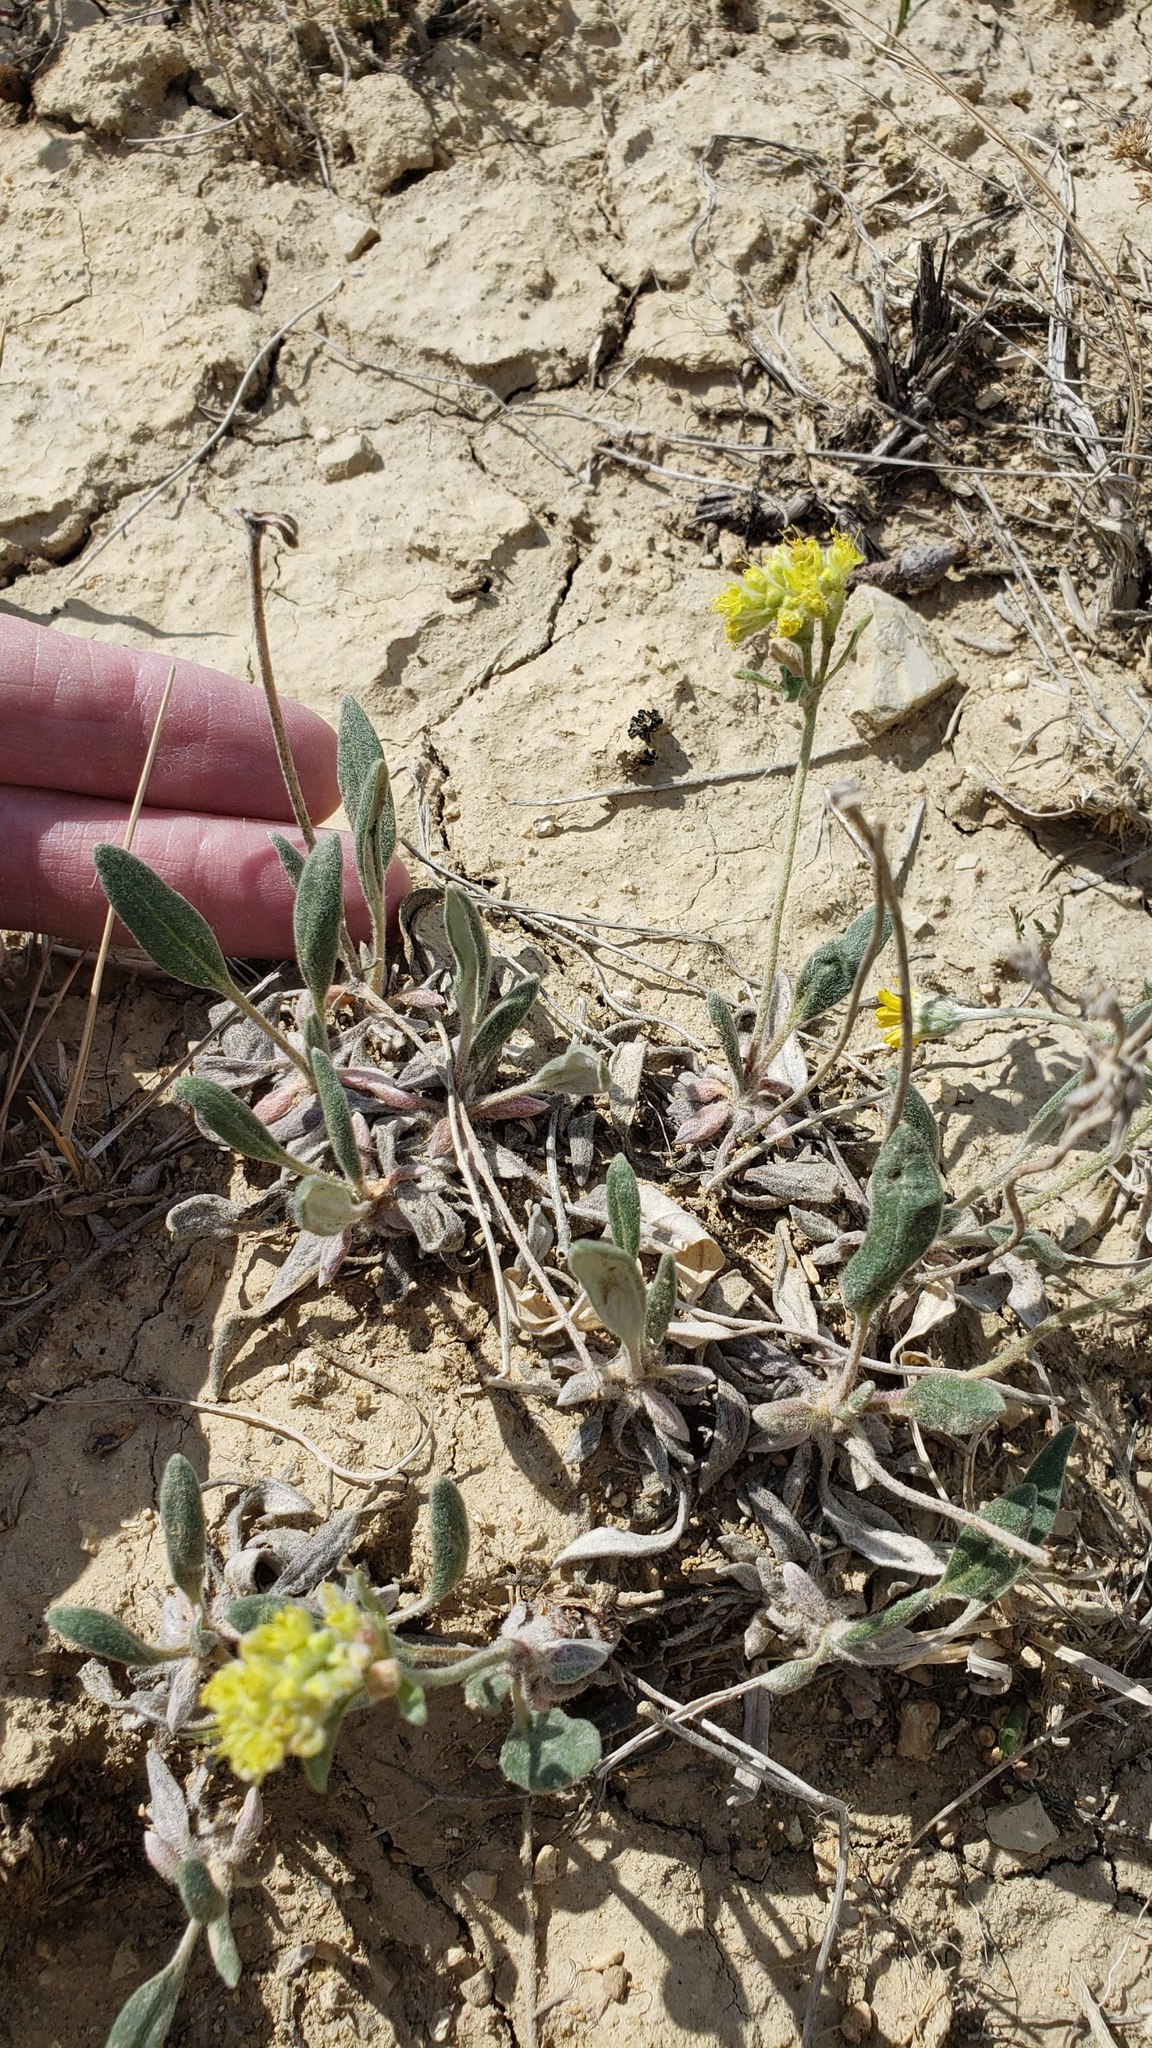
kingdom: Plantae
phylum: Tracheophyta
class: Magnoliopsida
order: Caryophyllales
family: Polygonaceae
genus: Eriogonum
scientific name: Eriogonum flavum
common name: Alpine golden wild buckwheat
